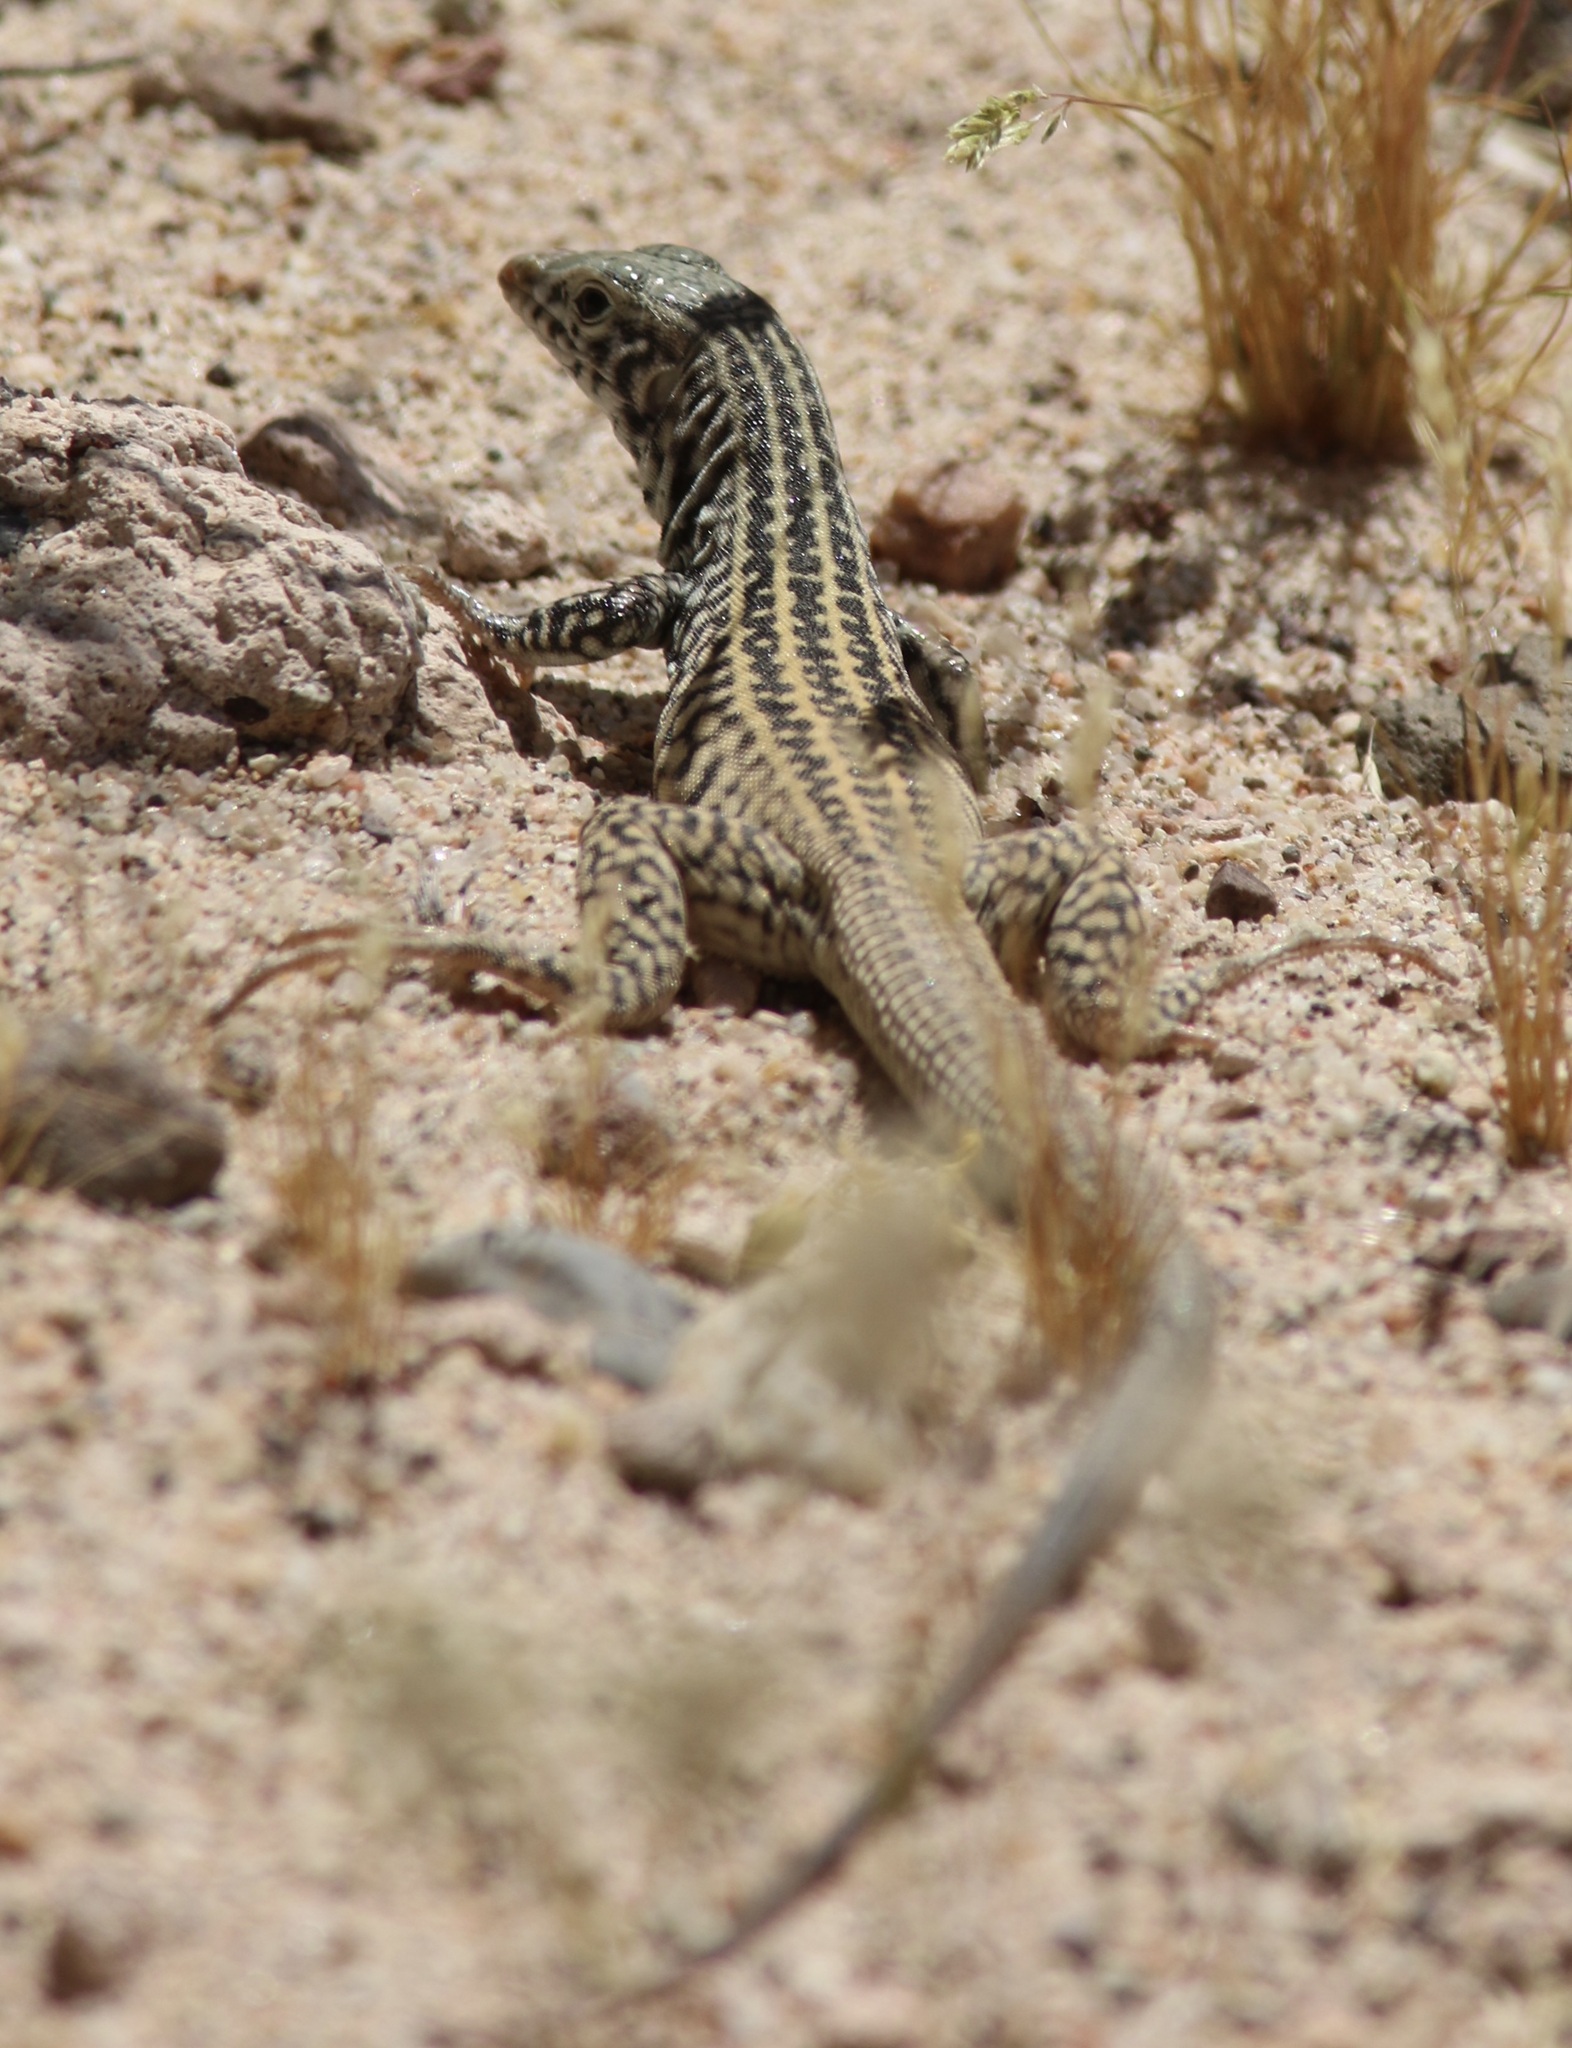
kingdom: Animalia
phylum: Chordata
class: Squamata
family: Teiidae
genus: Aspidoscelis
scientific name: Aspidoscelis tigris
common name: Tiger whiptail
